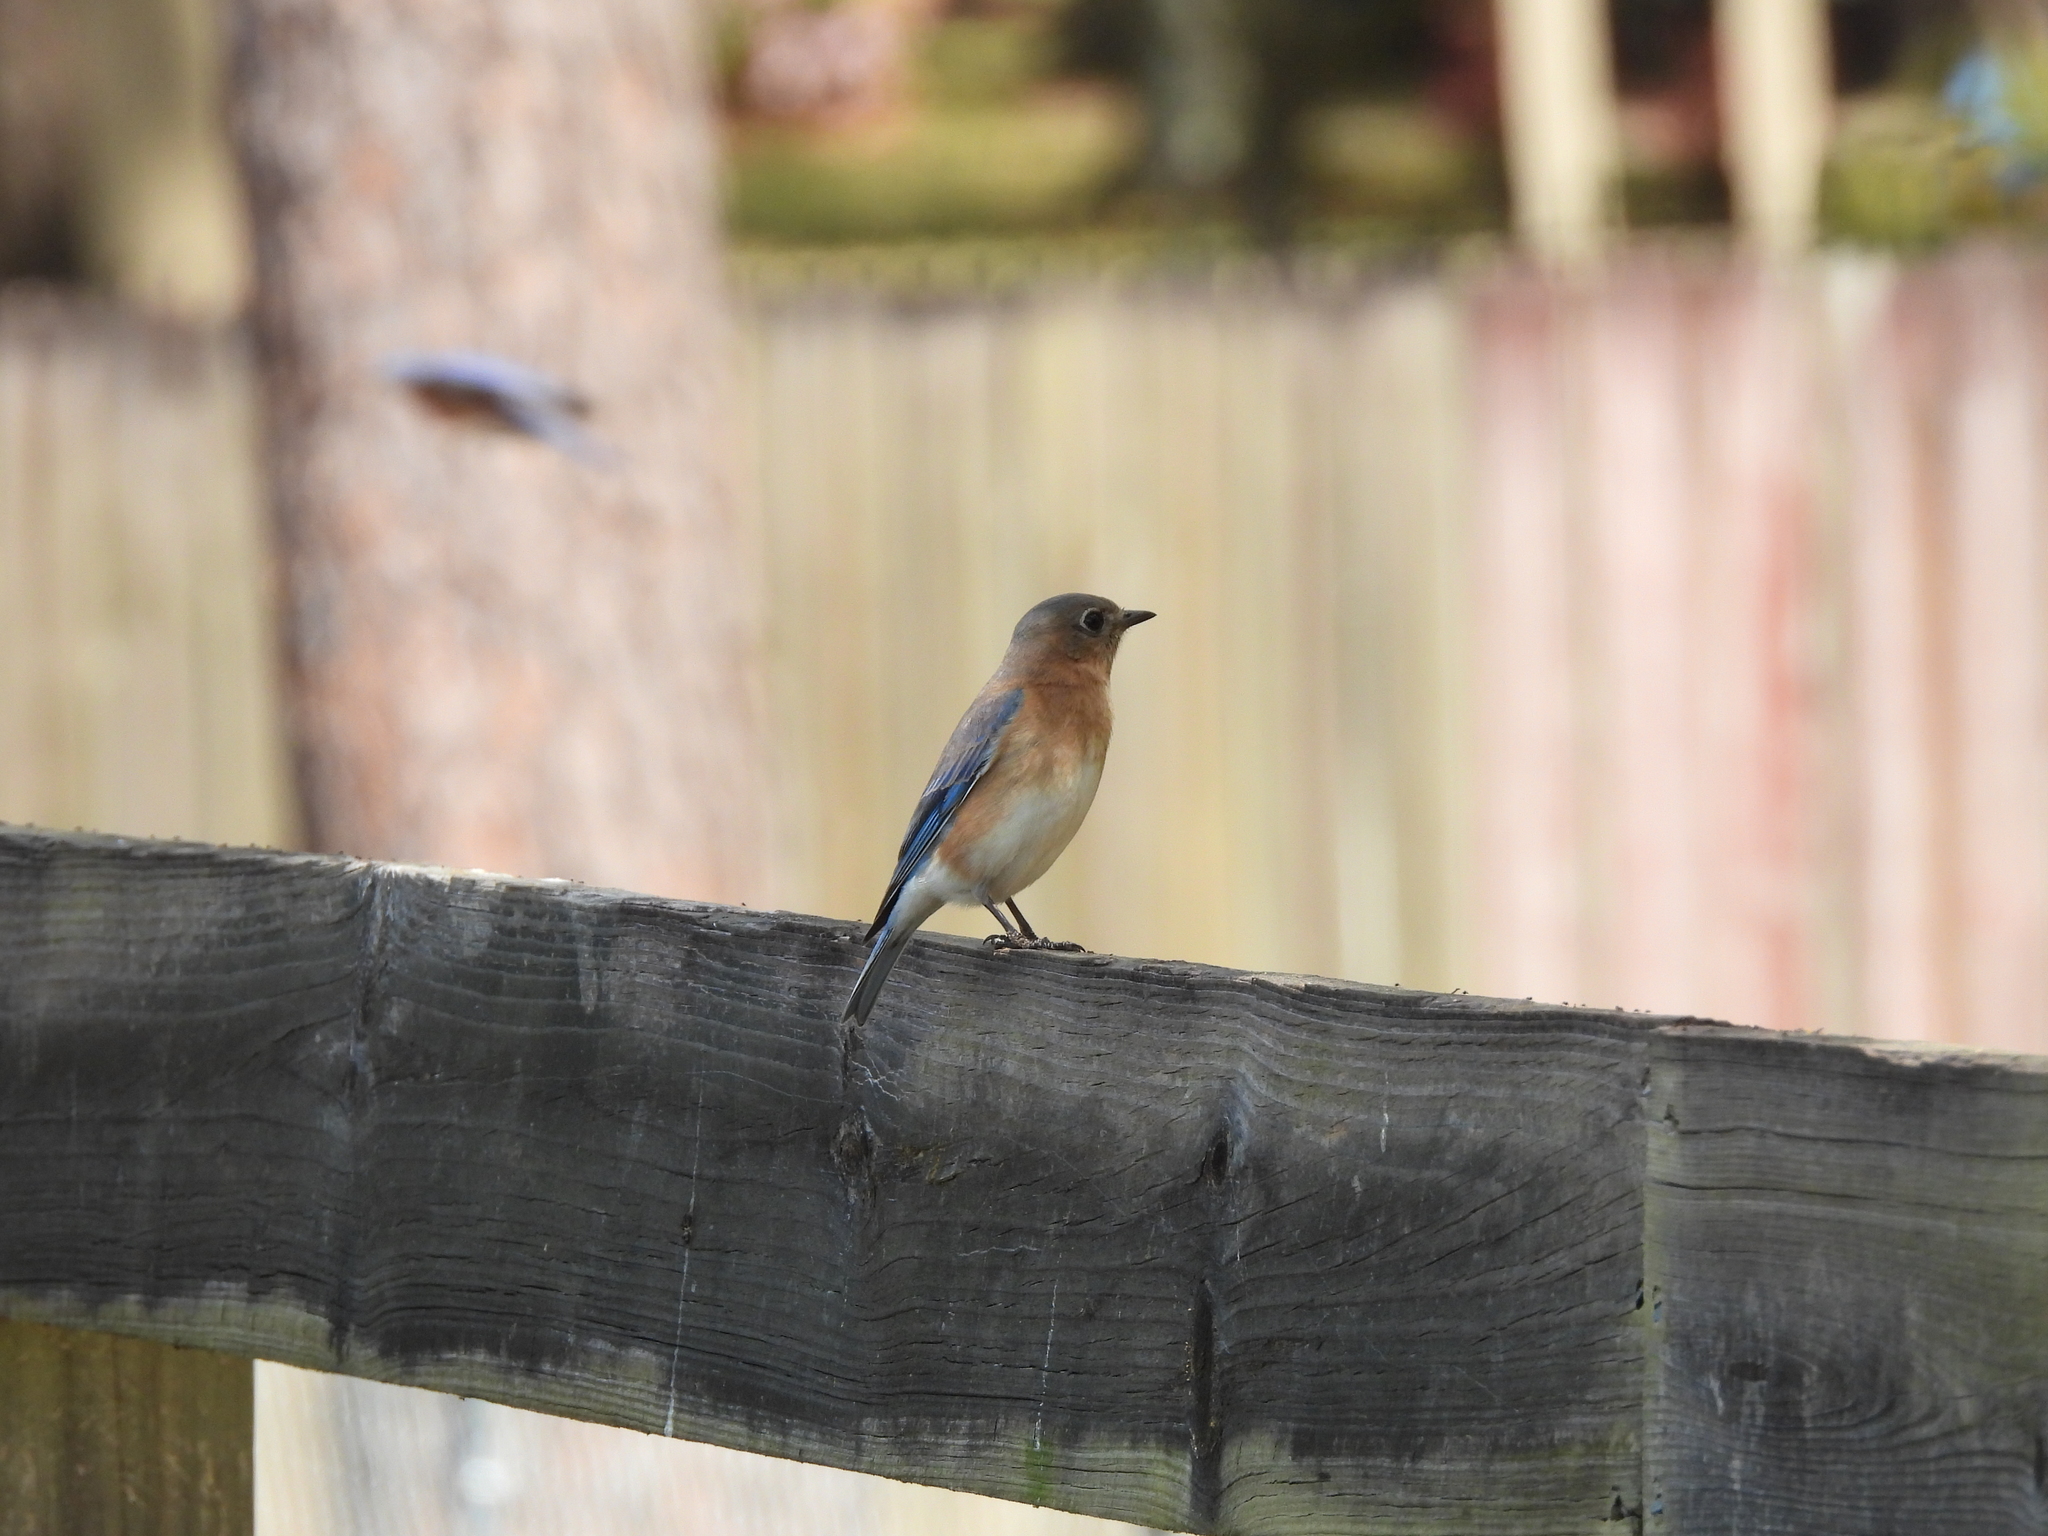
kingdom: Animalia
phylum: Chordata
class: Aves
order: Passeriformes
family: Turdidae
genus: Sialia
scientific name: Sialia sialis
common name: Eastern bluebird
